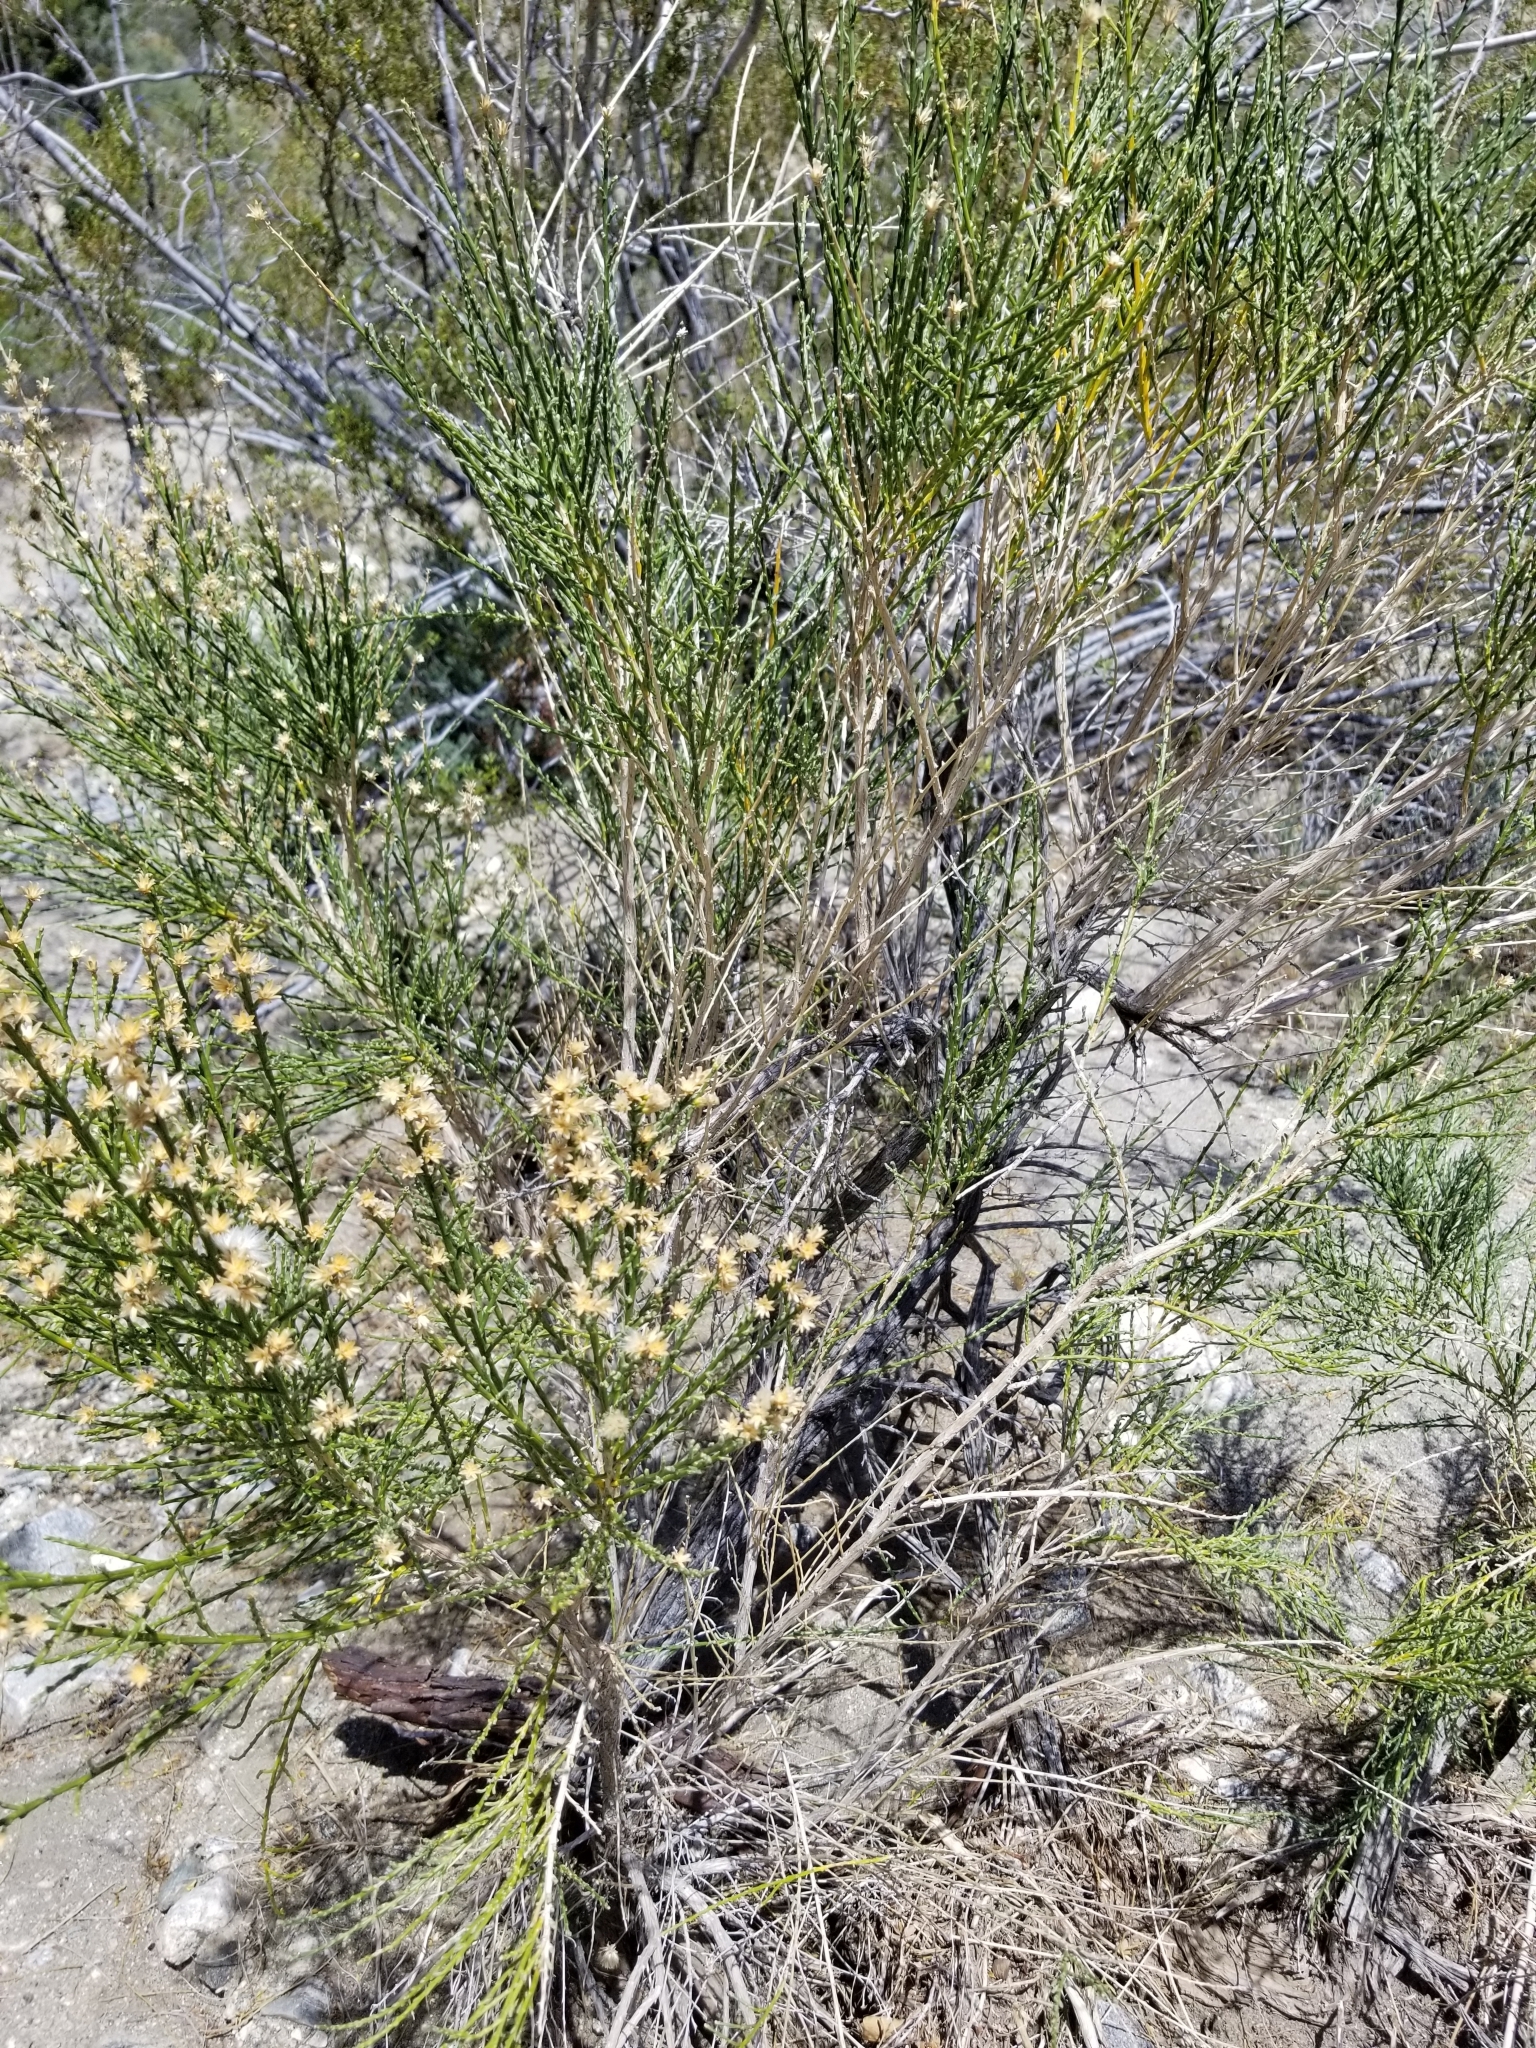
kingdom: Plantae
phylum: Tracheophyta
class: Magnoliopsida
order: Asterales
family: Asteraceae
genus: Lepidospartum
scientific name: Lepidospartum squamatum
